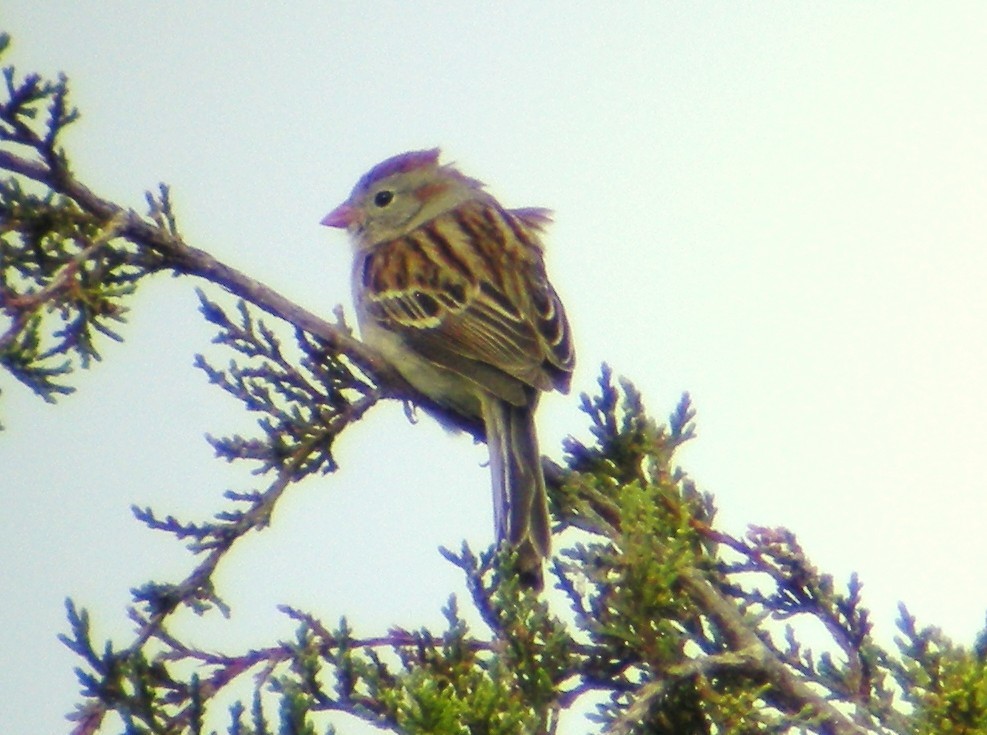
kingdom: Animalia
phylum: Chordata
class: Aves
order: Passeriformes
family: Passerellidae
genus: Spizella
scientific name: Spizella pusilla
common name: Field sparrow
